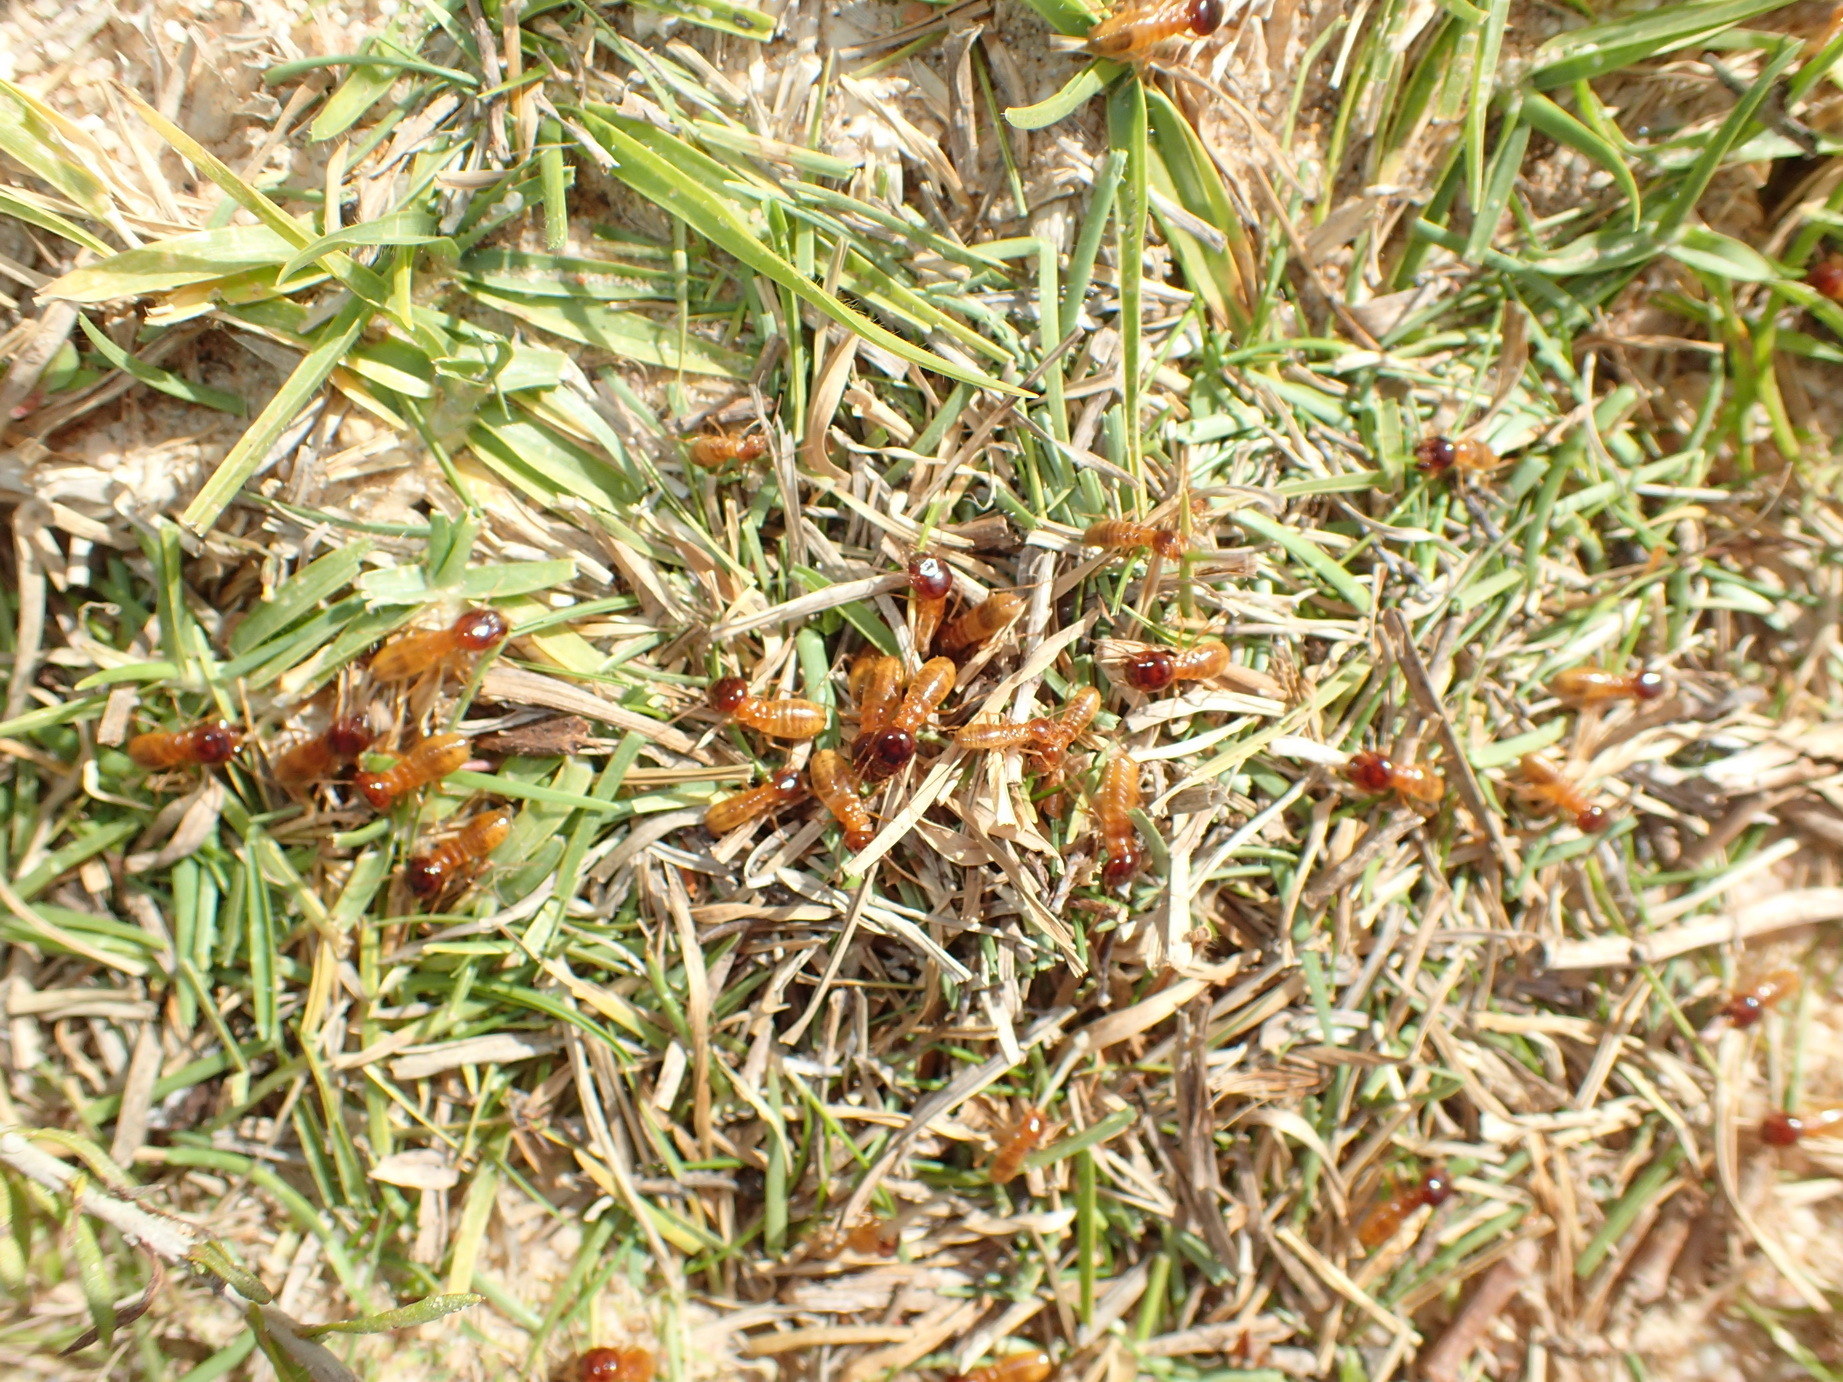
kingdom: Animalia
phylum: Arthropoda
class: Insecta
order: Blattodea
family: Hodotermitidae
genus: Microhodotermes
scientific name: Microhodotermes viator
